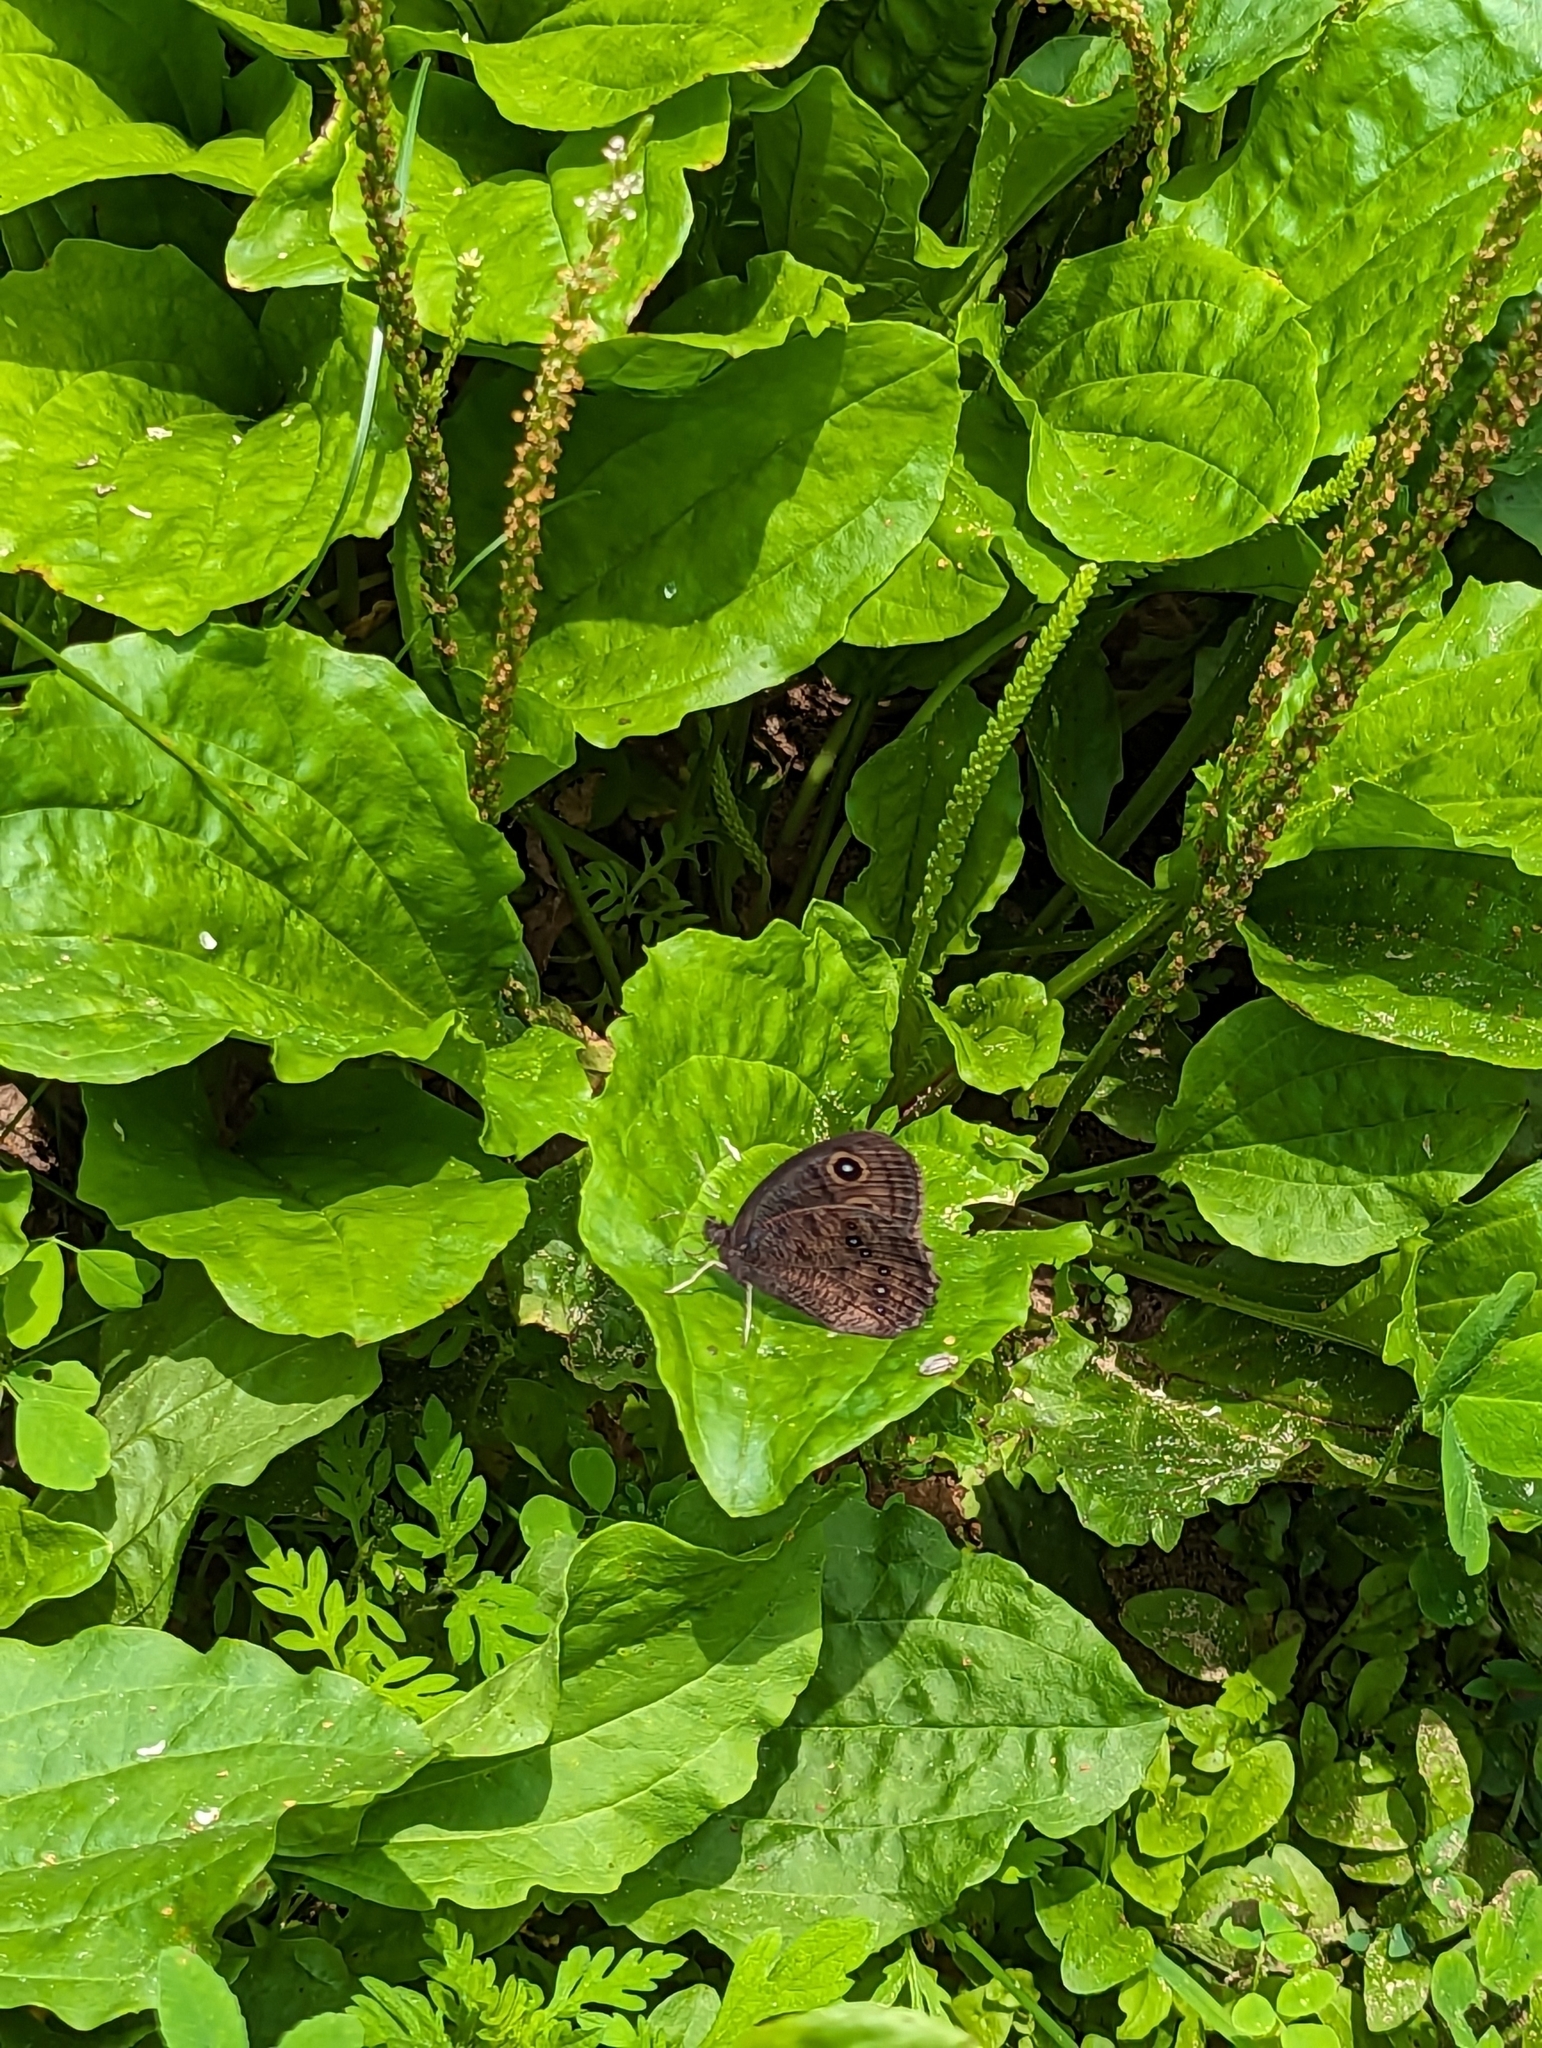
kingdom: Animalia
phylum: Arthropoda
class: Insecta
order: Lepidoptera
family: Nymphalidae
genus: Cercyonis
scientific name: Cercyonis pegala
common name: Common wood-nymph
